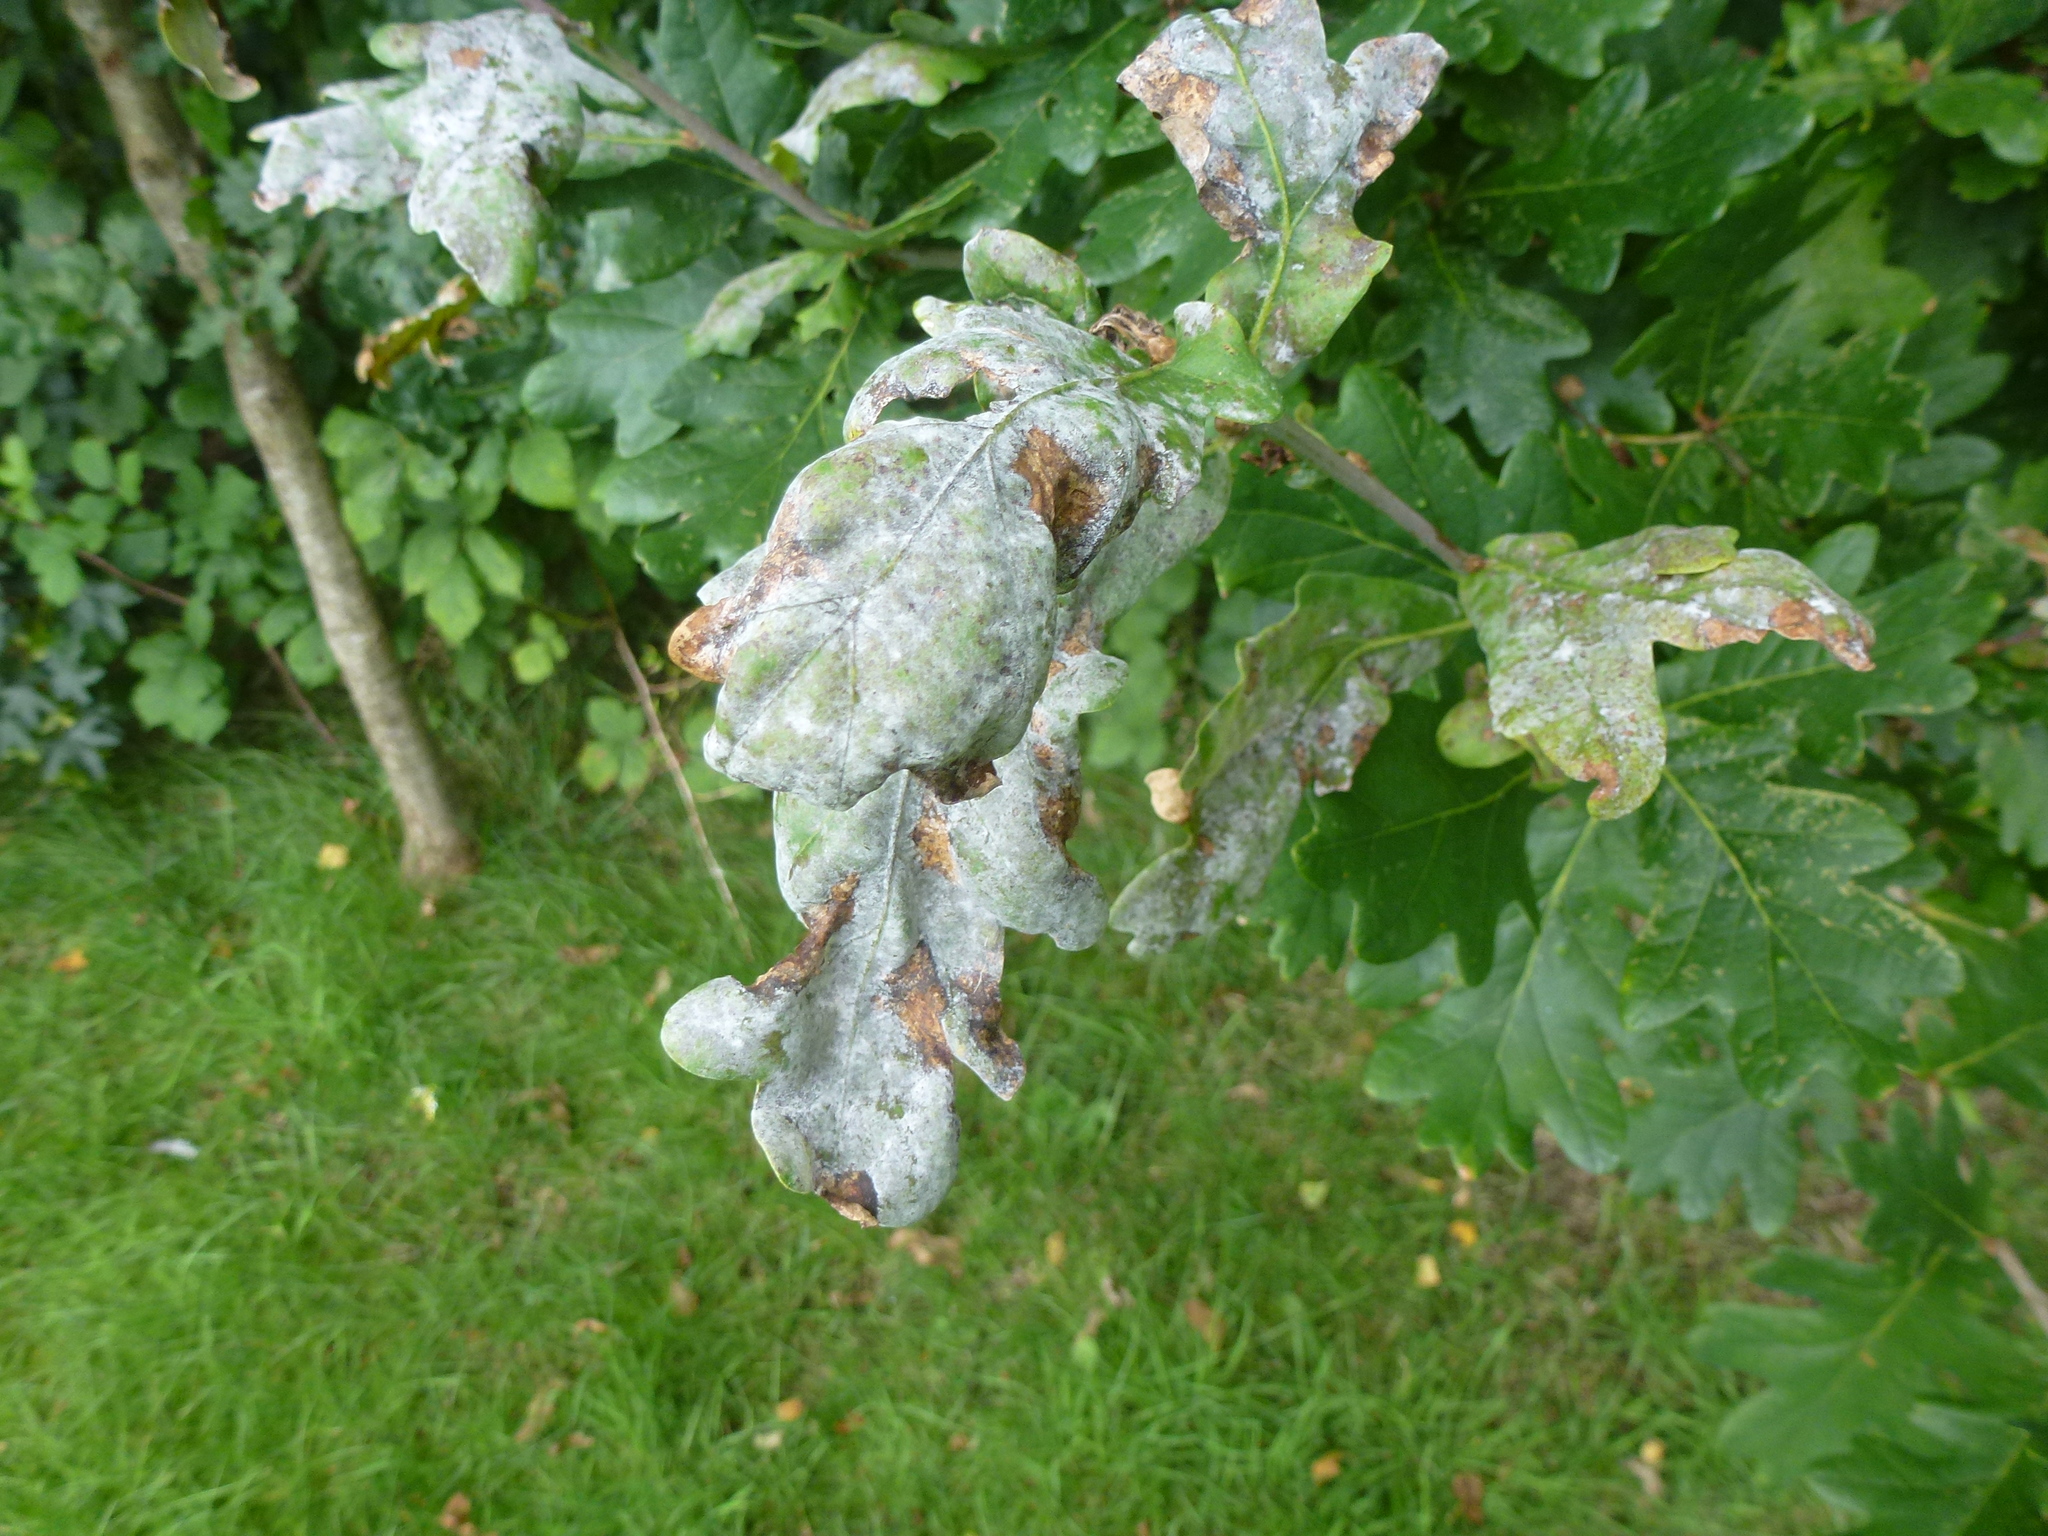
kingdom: Fungi
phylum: Ascomycota
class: Leotiomycetes
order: Helotiales
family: Erysiphaceae
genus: Erysiphe
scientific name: Erysiphe alphitoides
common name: Oak mildew
